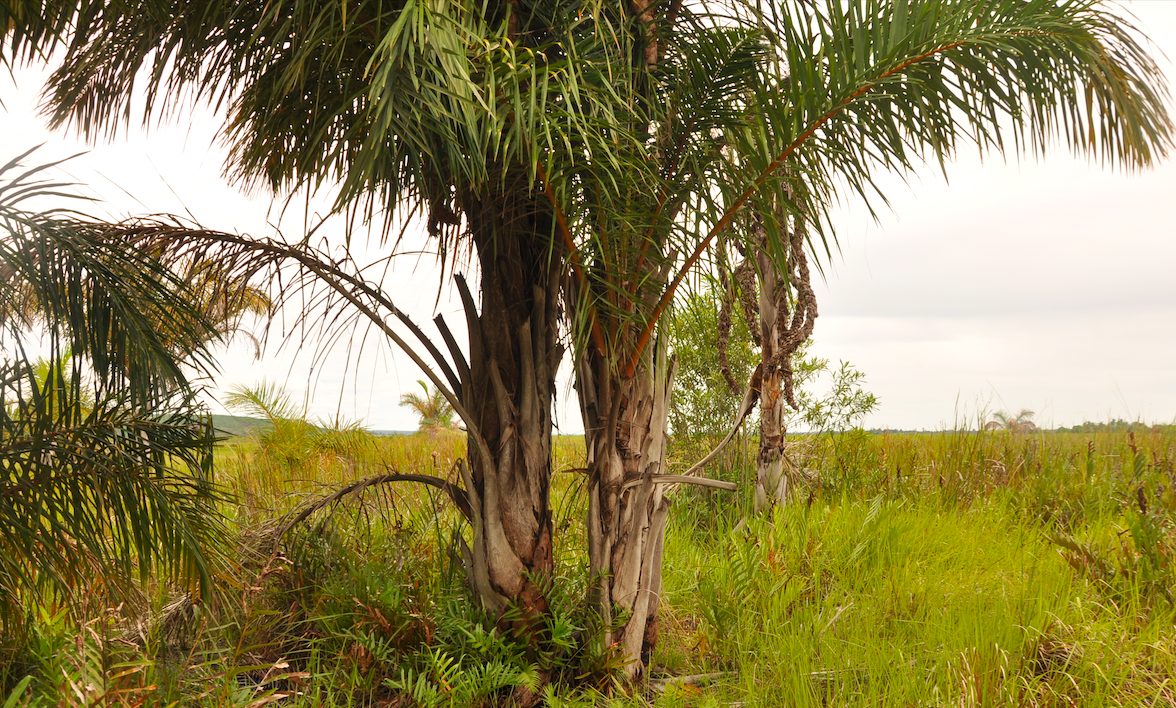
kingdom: Plantae
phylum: Tracheophyta
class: Liliopsida
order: Arecales
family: Arecaceae
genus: Raphia
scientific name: Raphia farinifera
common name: Raphia palm
